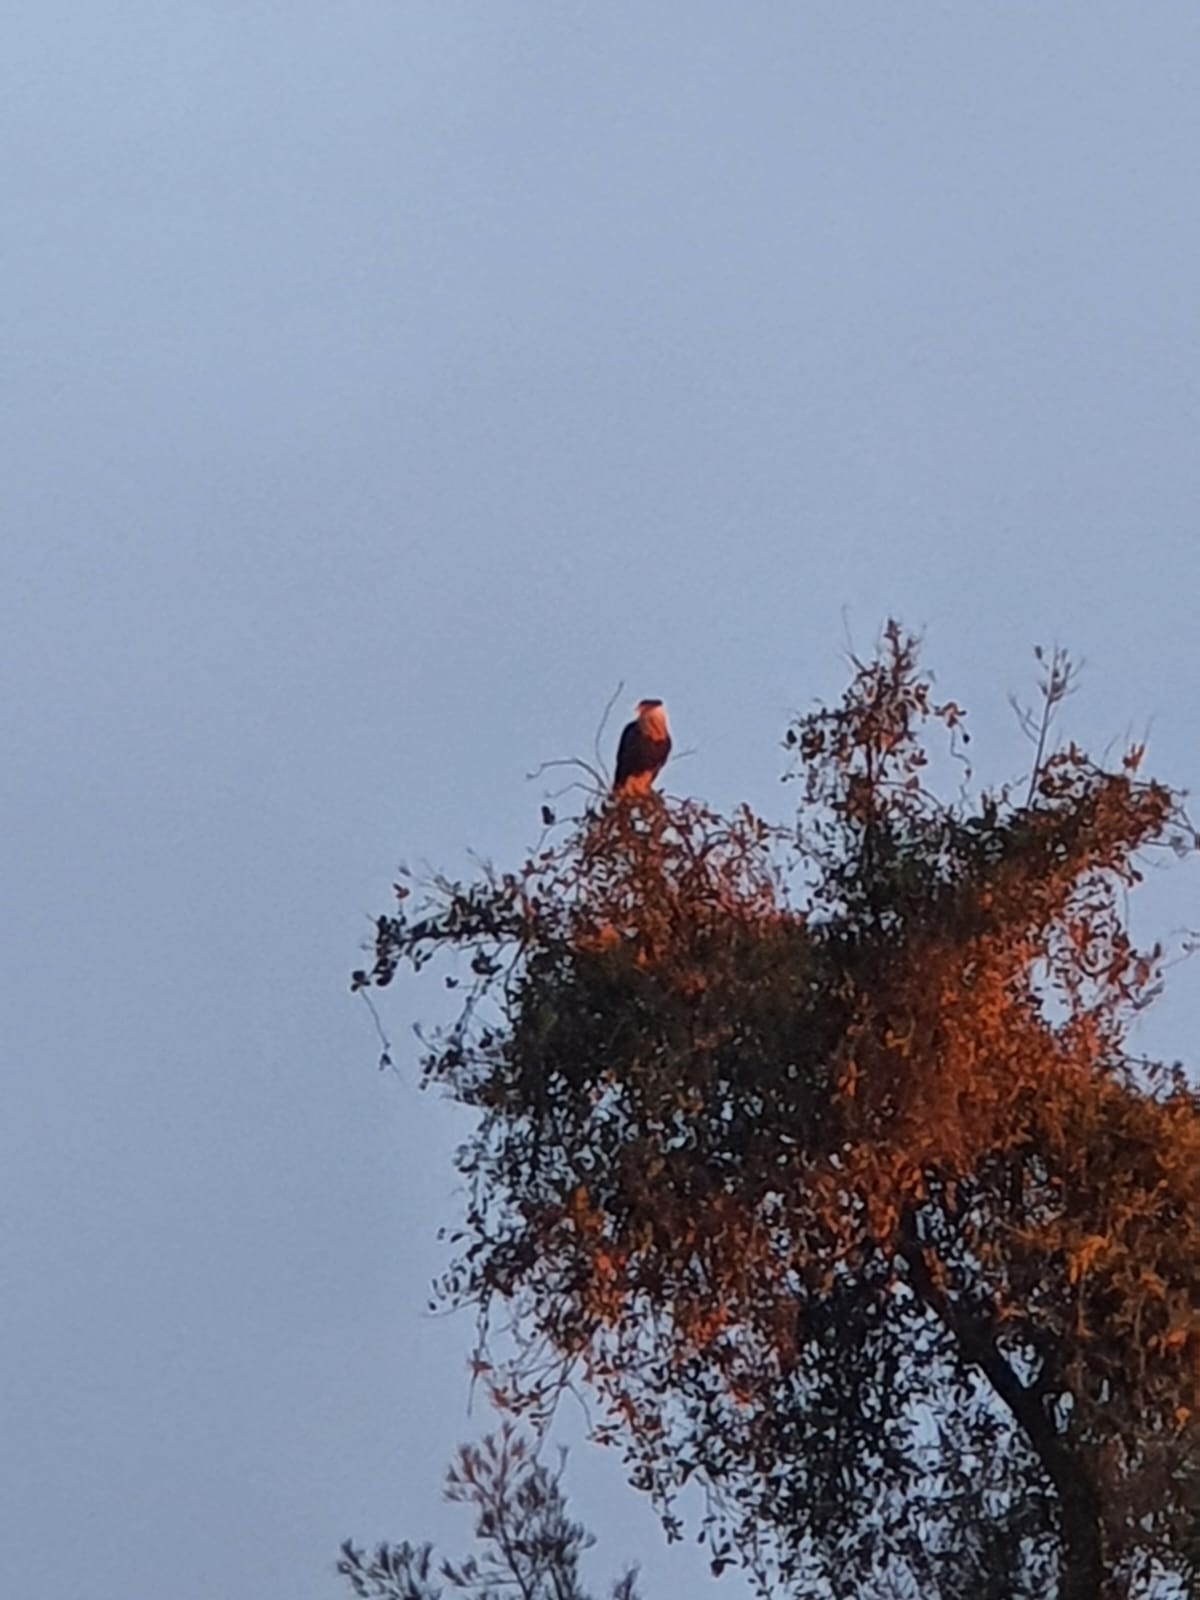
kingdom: Animalia
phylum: Chordata
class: Aves
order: Falconiformes
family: Falconidae
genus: Caracara
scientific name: Caracara plancus
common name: Southern caracara
